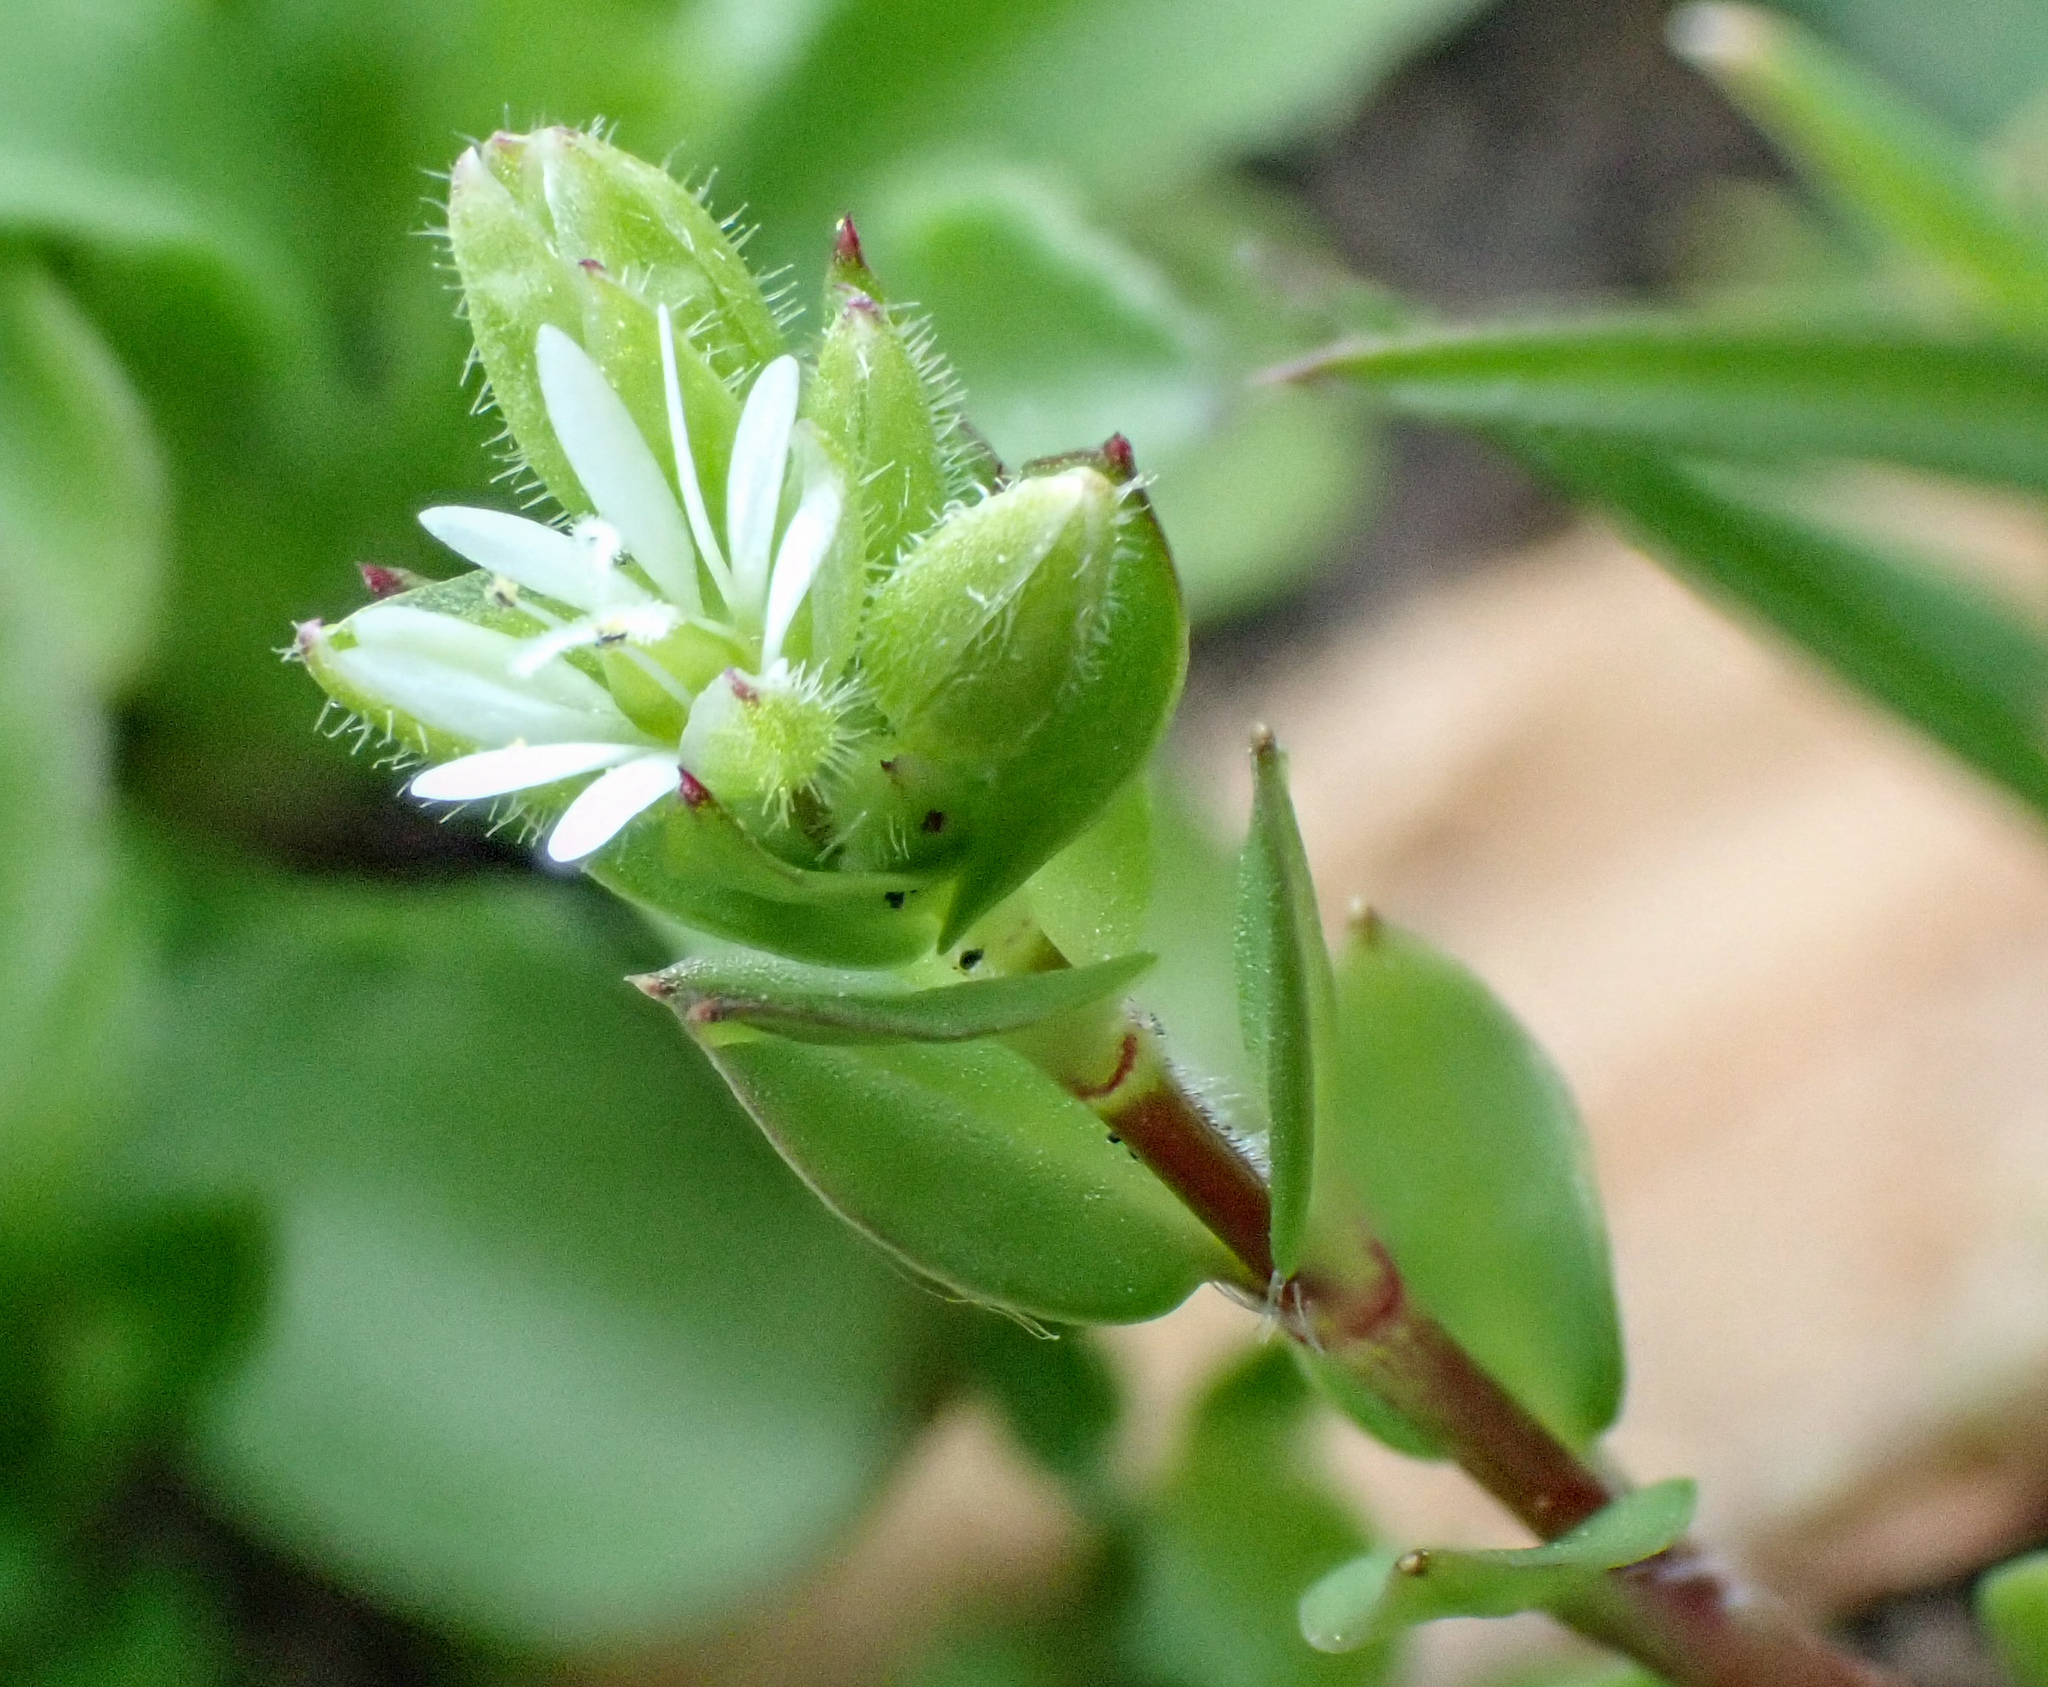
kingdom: Plantae
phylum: Tracheophyta
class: Magnoliopsida
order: Caryophyllales
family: Caryophyllaceae
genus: Stellaria
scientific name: Stellaria media
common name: Common chickweed
